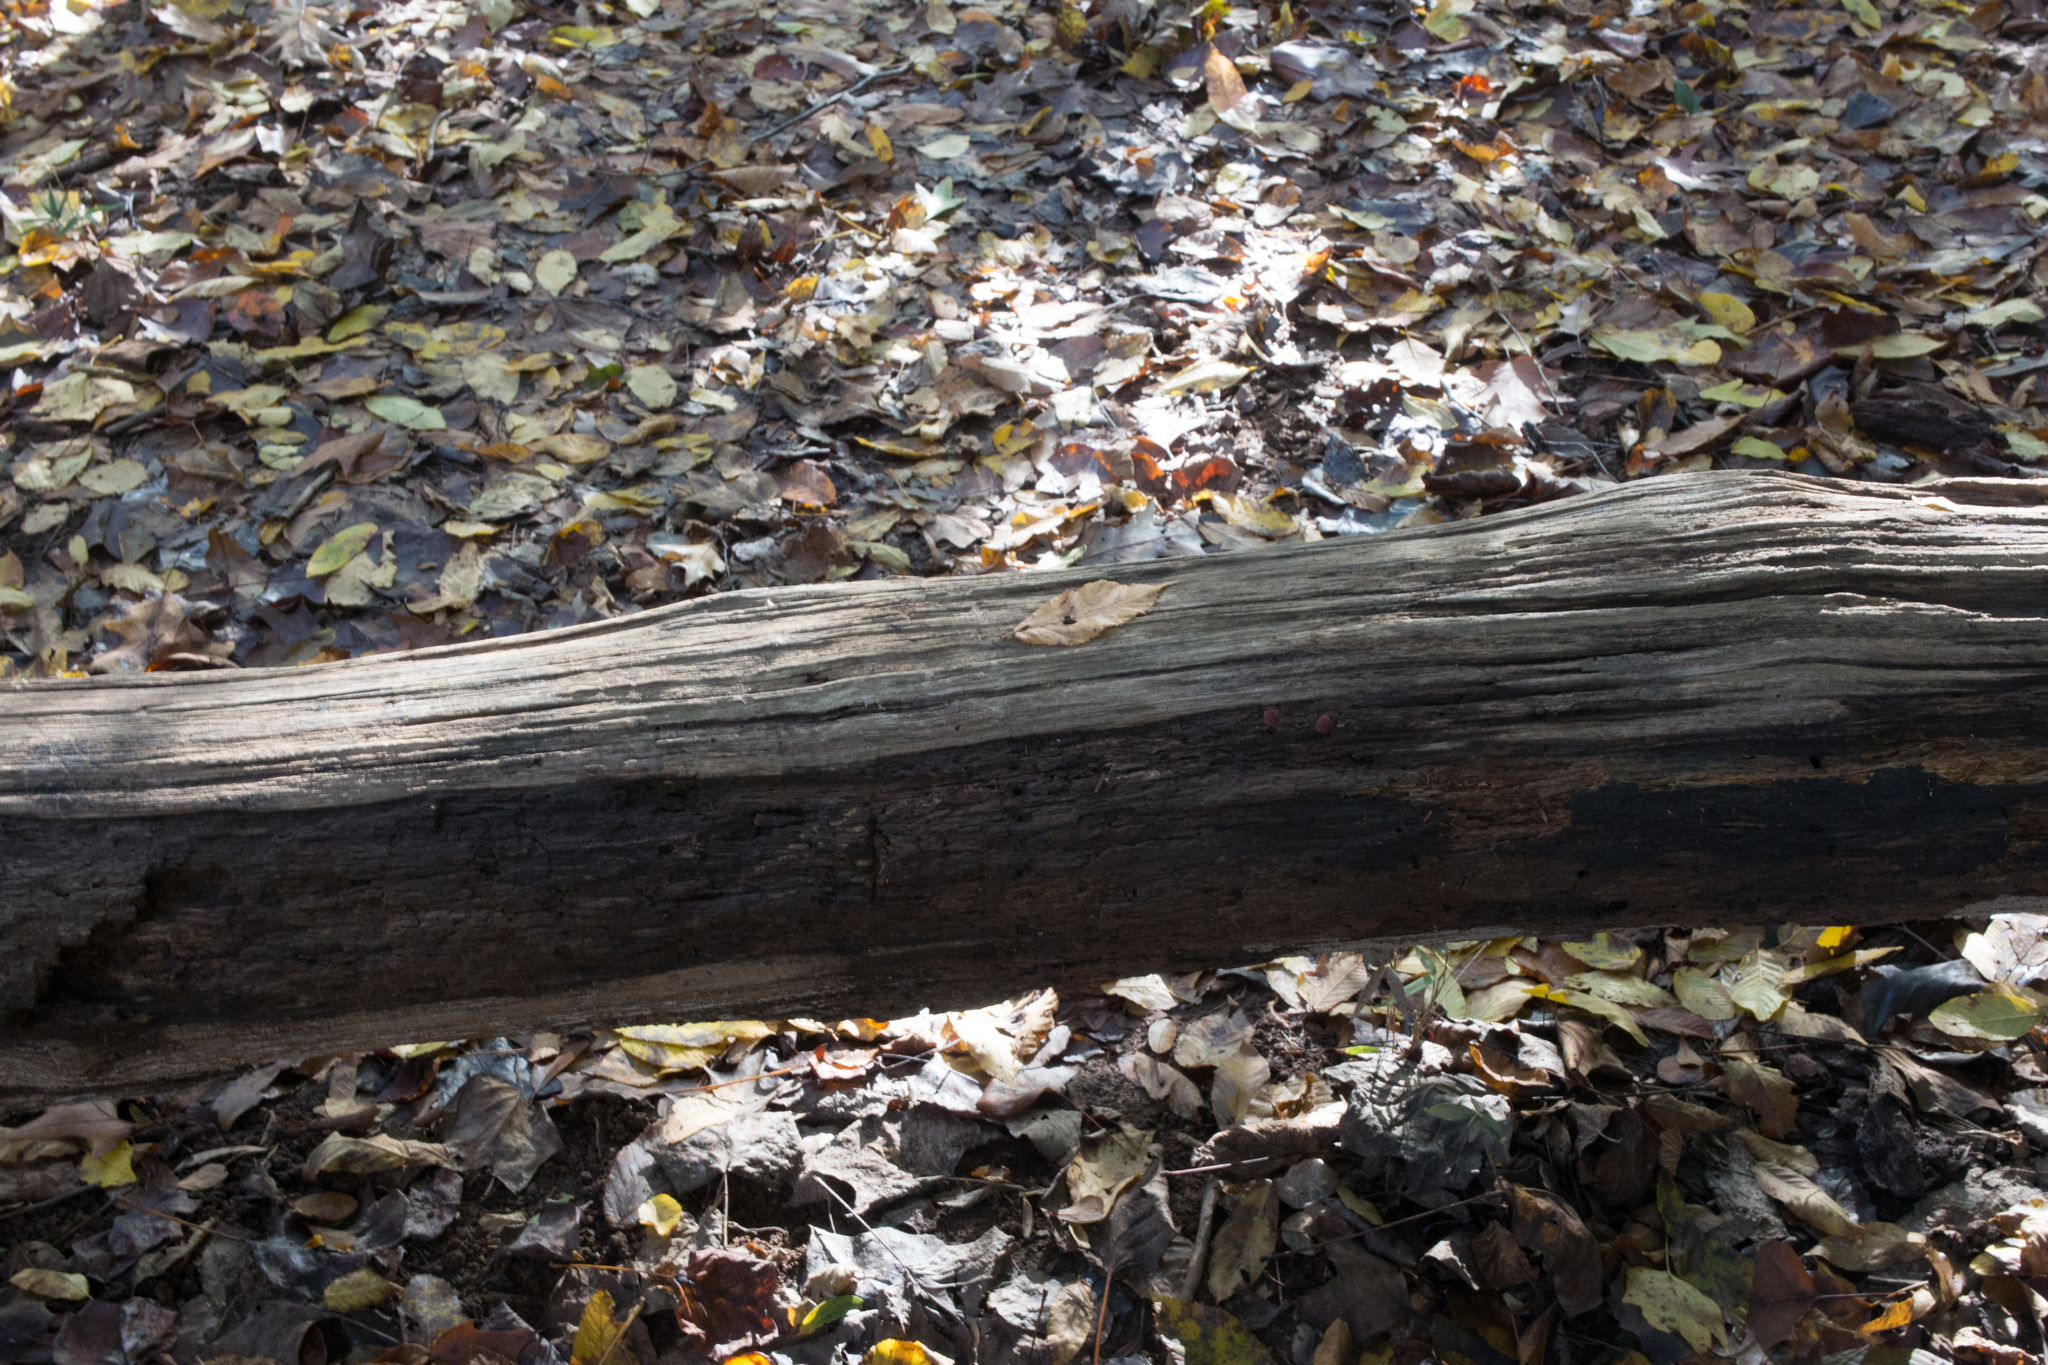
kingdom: Fungi
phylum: Basidiomycota
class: Agaricomycetes
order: Agaricales
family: Mycenaceae
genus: Mycena
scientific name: Mycena haematopus
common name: Burgundydrop bonnet
